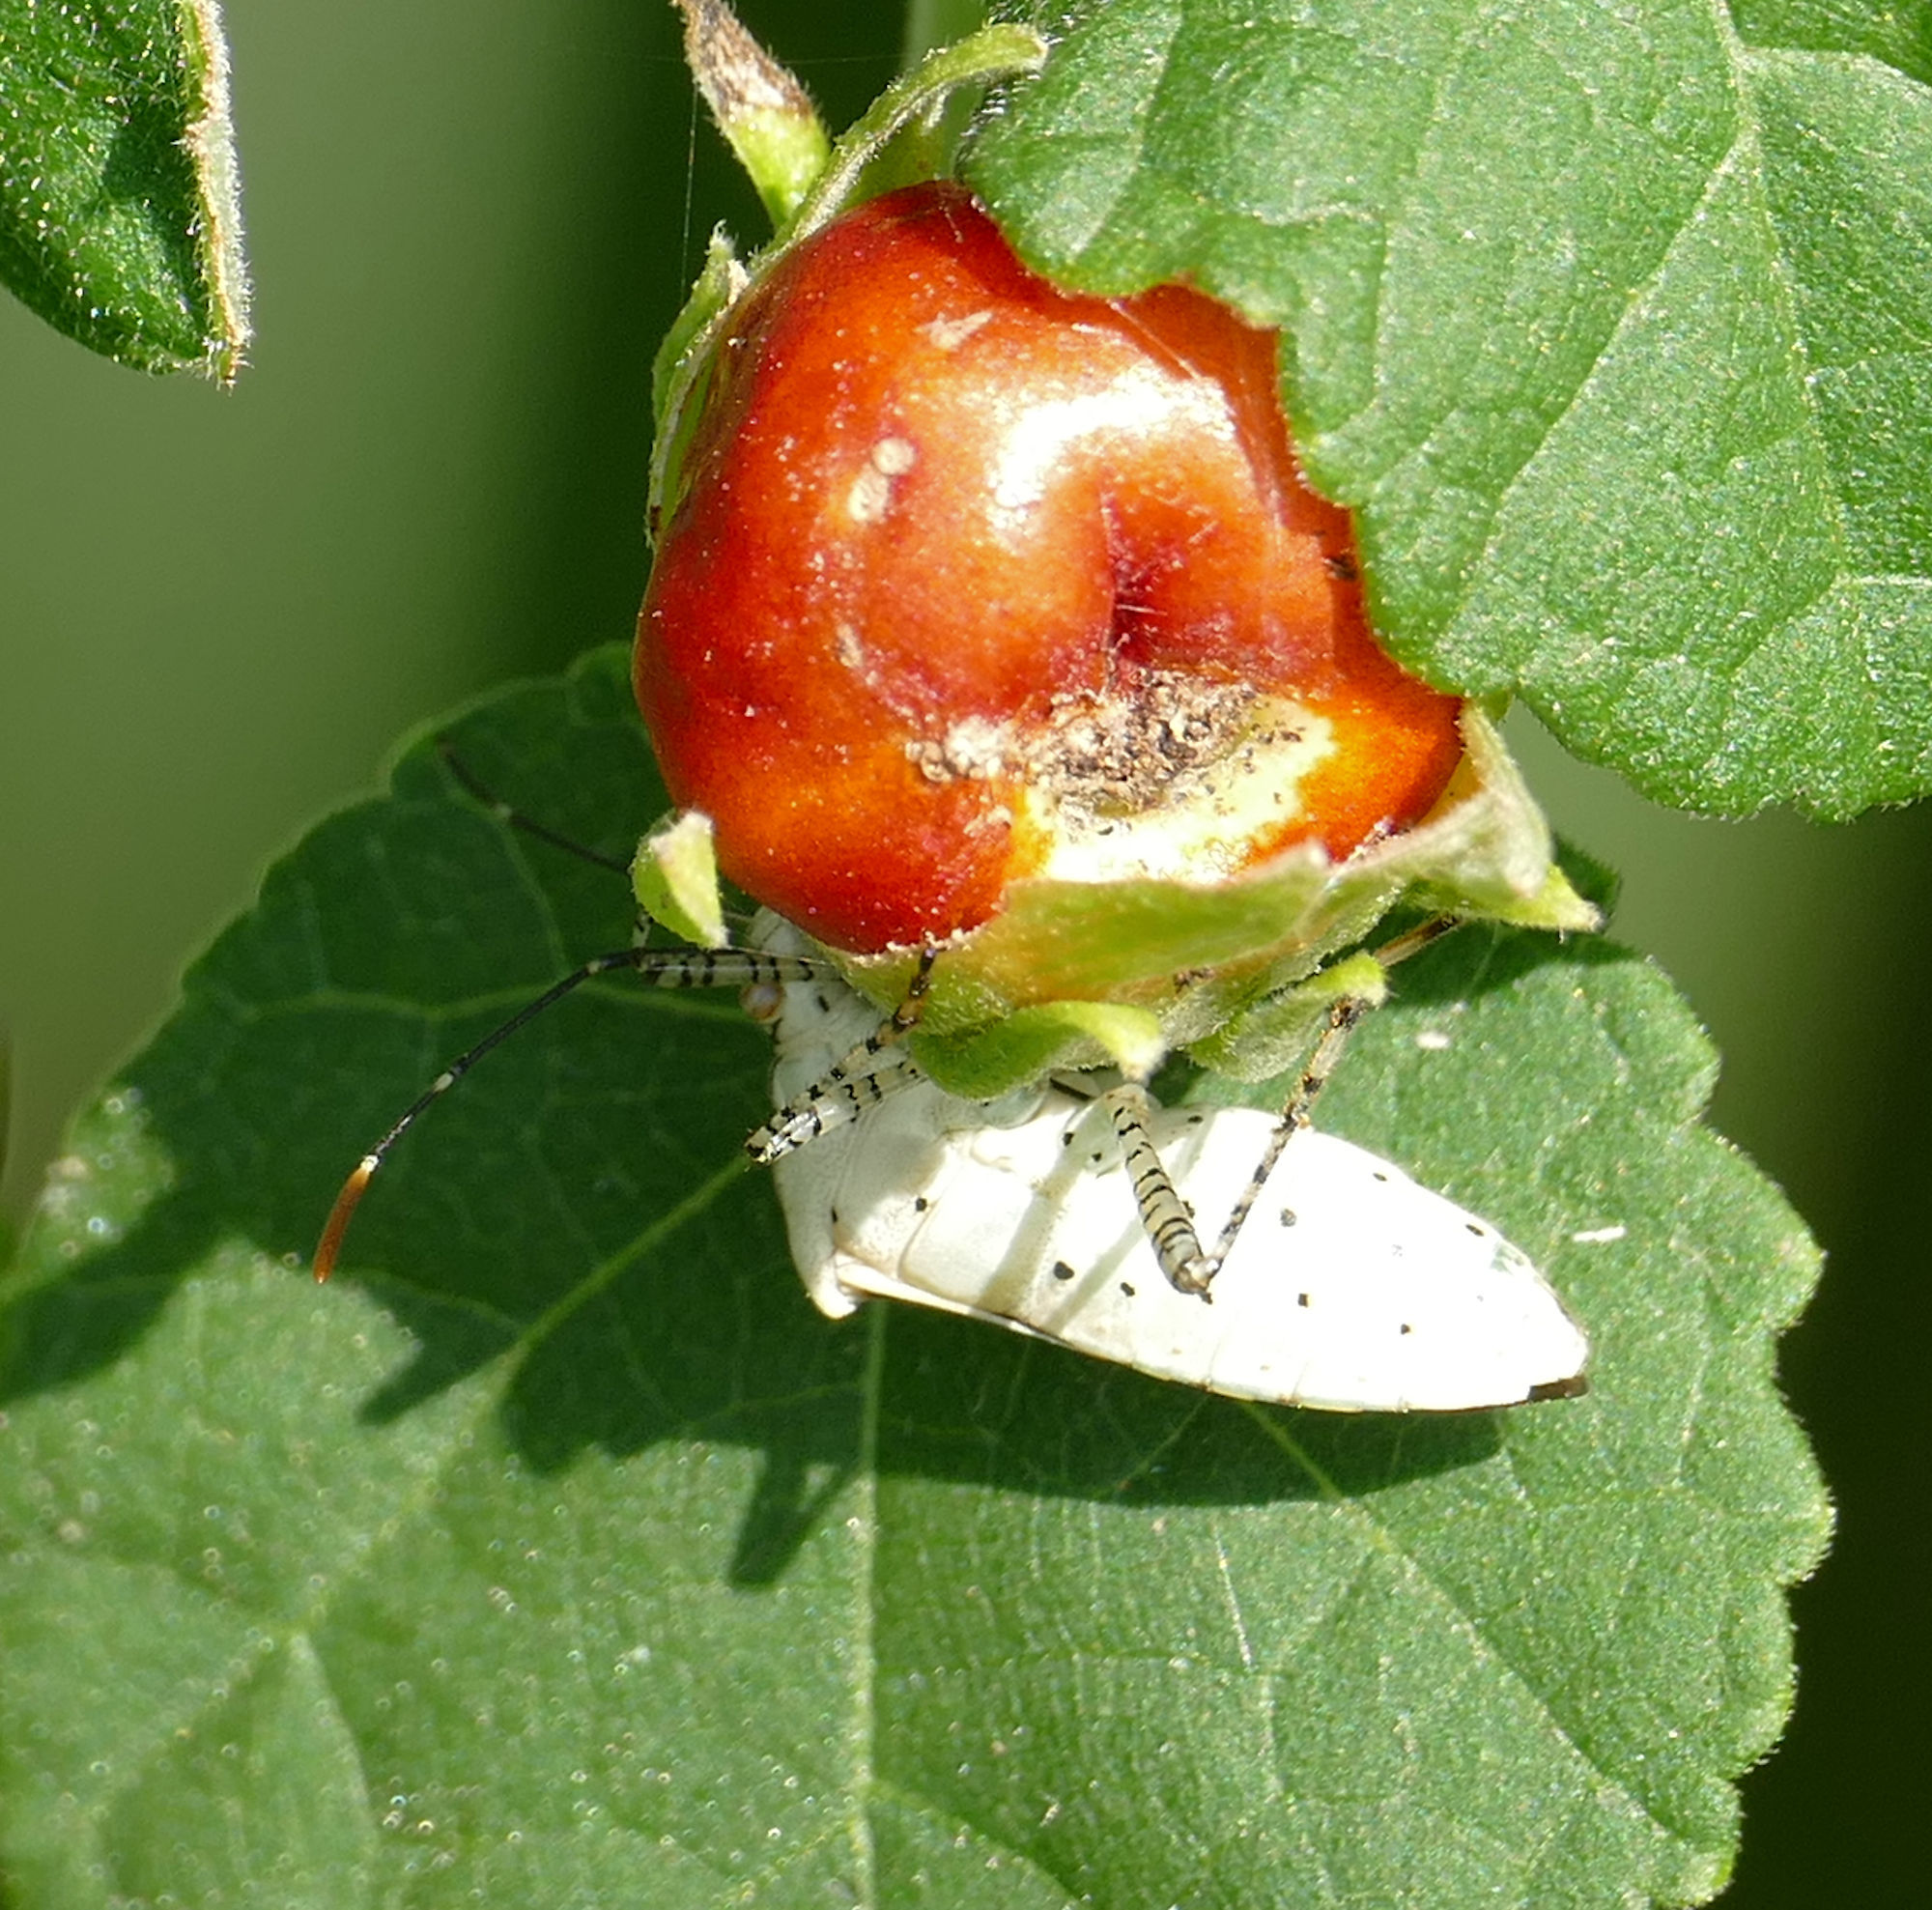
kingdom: Animalia
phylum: Arthropoda
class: Insecta
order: Hemiptera
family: Coreidae
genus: Hypselonotus
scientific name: Hypselonotus punctiventris
